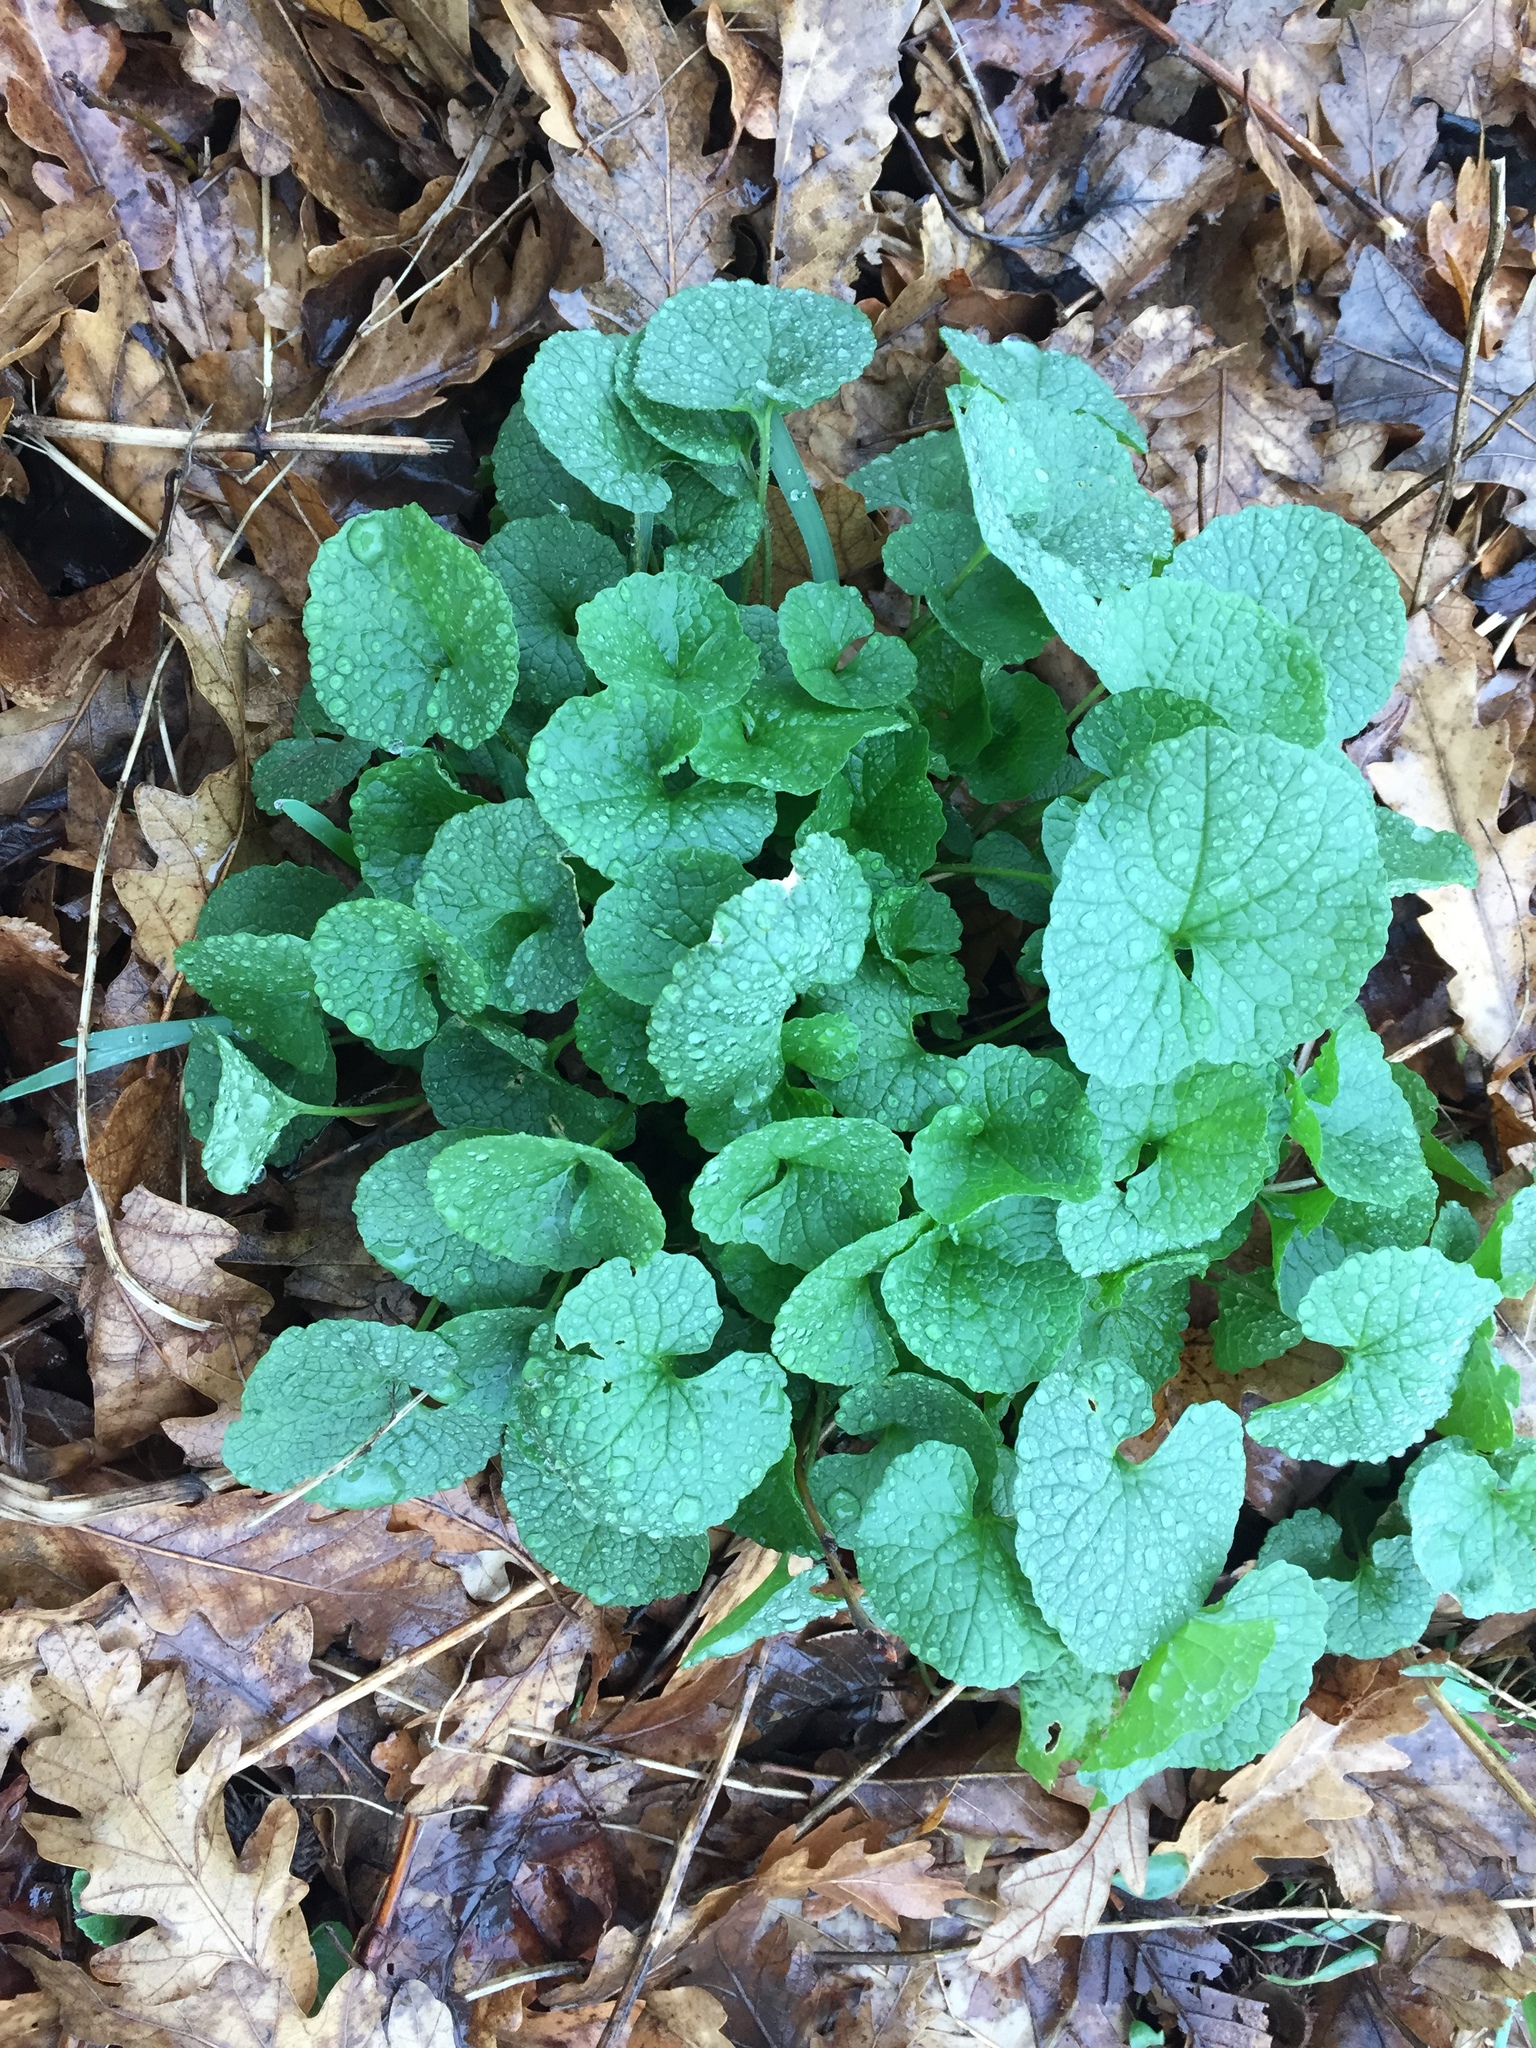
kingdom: Plantae
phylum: Tracheophyta
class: Magnoliopsida
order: Brassicales
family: Brassicaceae
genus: Alliaria
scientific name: Alliaria petiolata
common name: Garlic mustard
